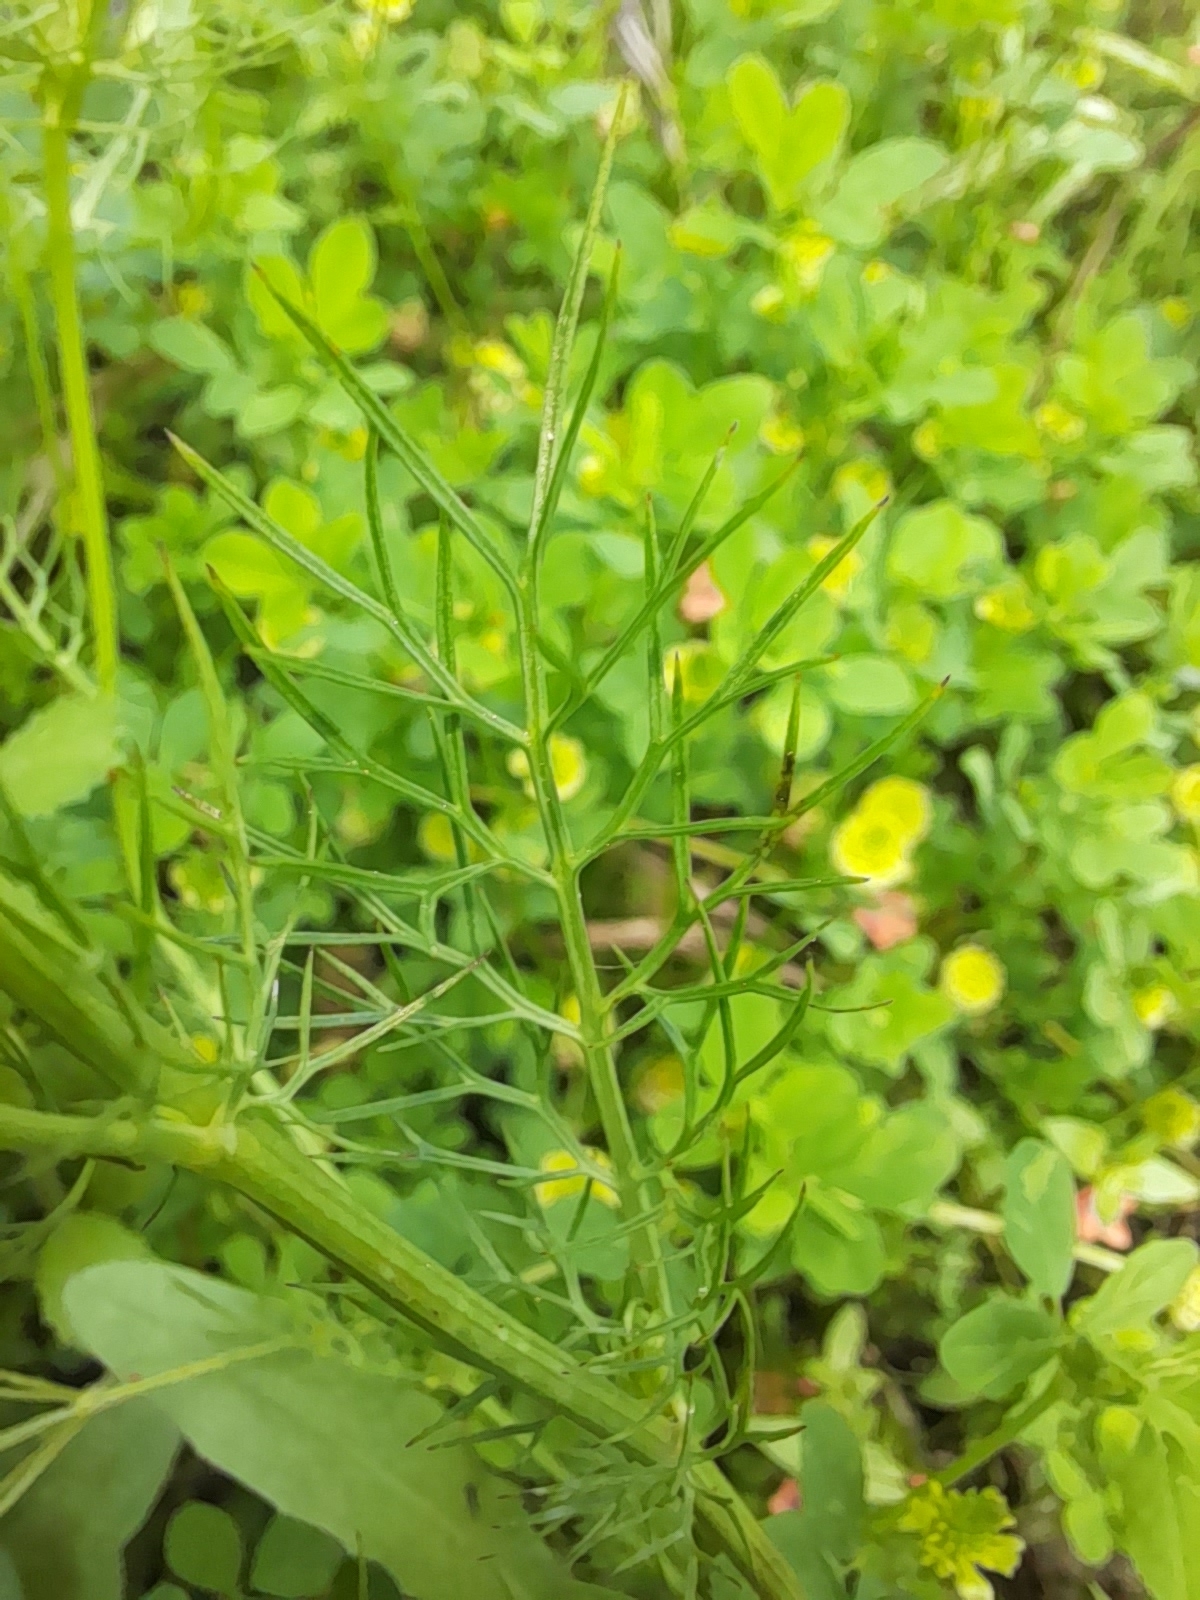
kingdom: Plantae
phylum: Tracheophyta
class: Magnoliopsida
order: Ranunculales
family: Ranunculaceae
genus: Nigella
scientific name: Nigella damascena
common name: Love-in-a-mist
